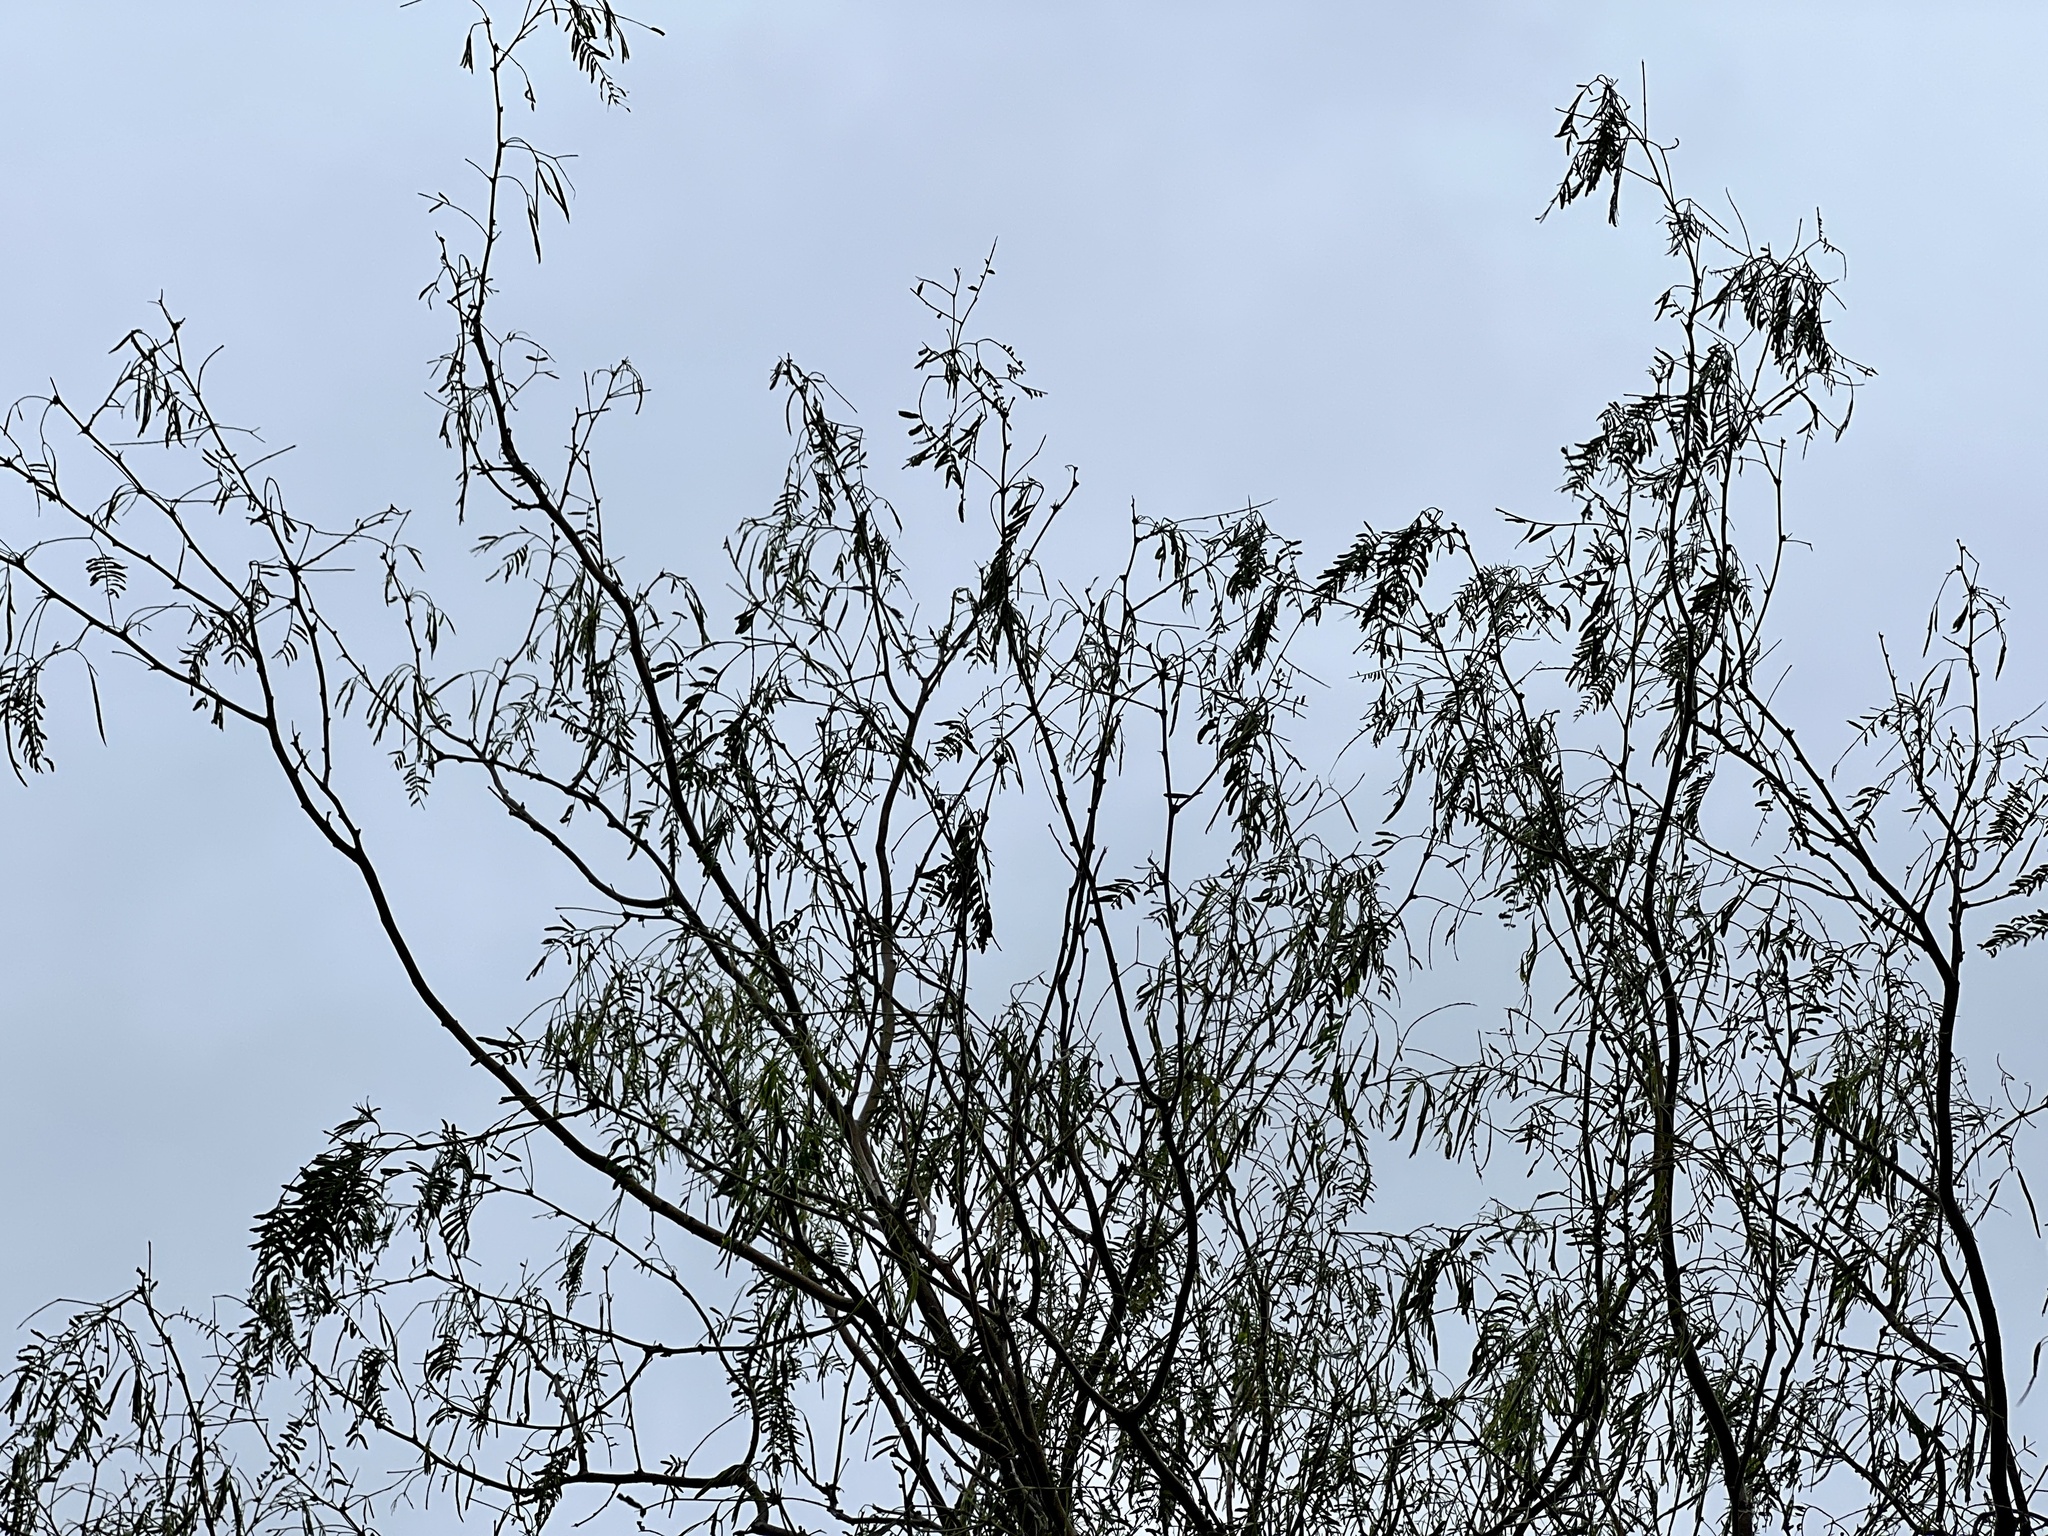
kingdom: Plantae
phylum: Tracheophyta
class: Magnoliopsida
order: Fabales
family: Fabaceae
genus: Prosopis
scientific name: Prosopis glandulosa
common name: Honey mesquite
